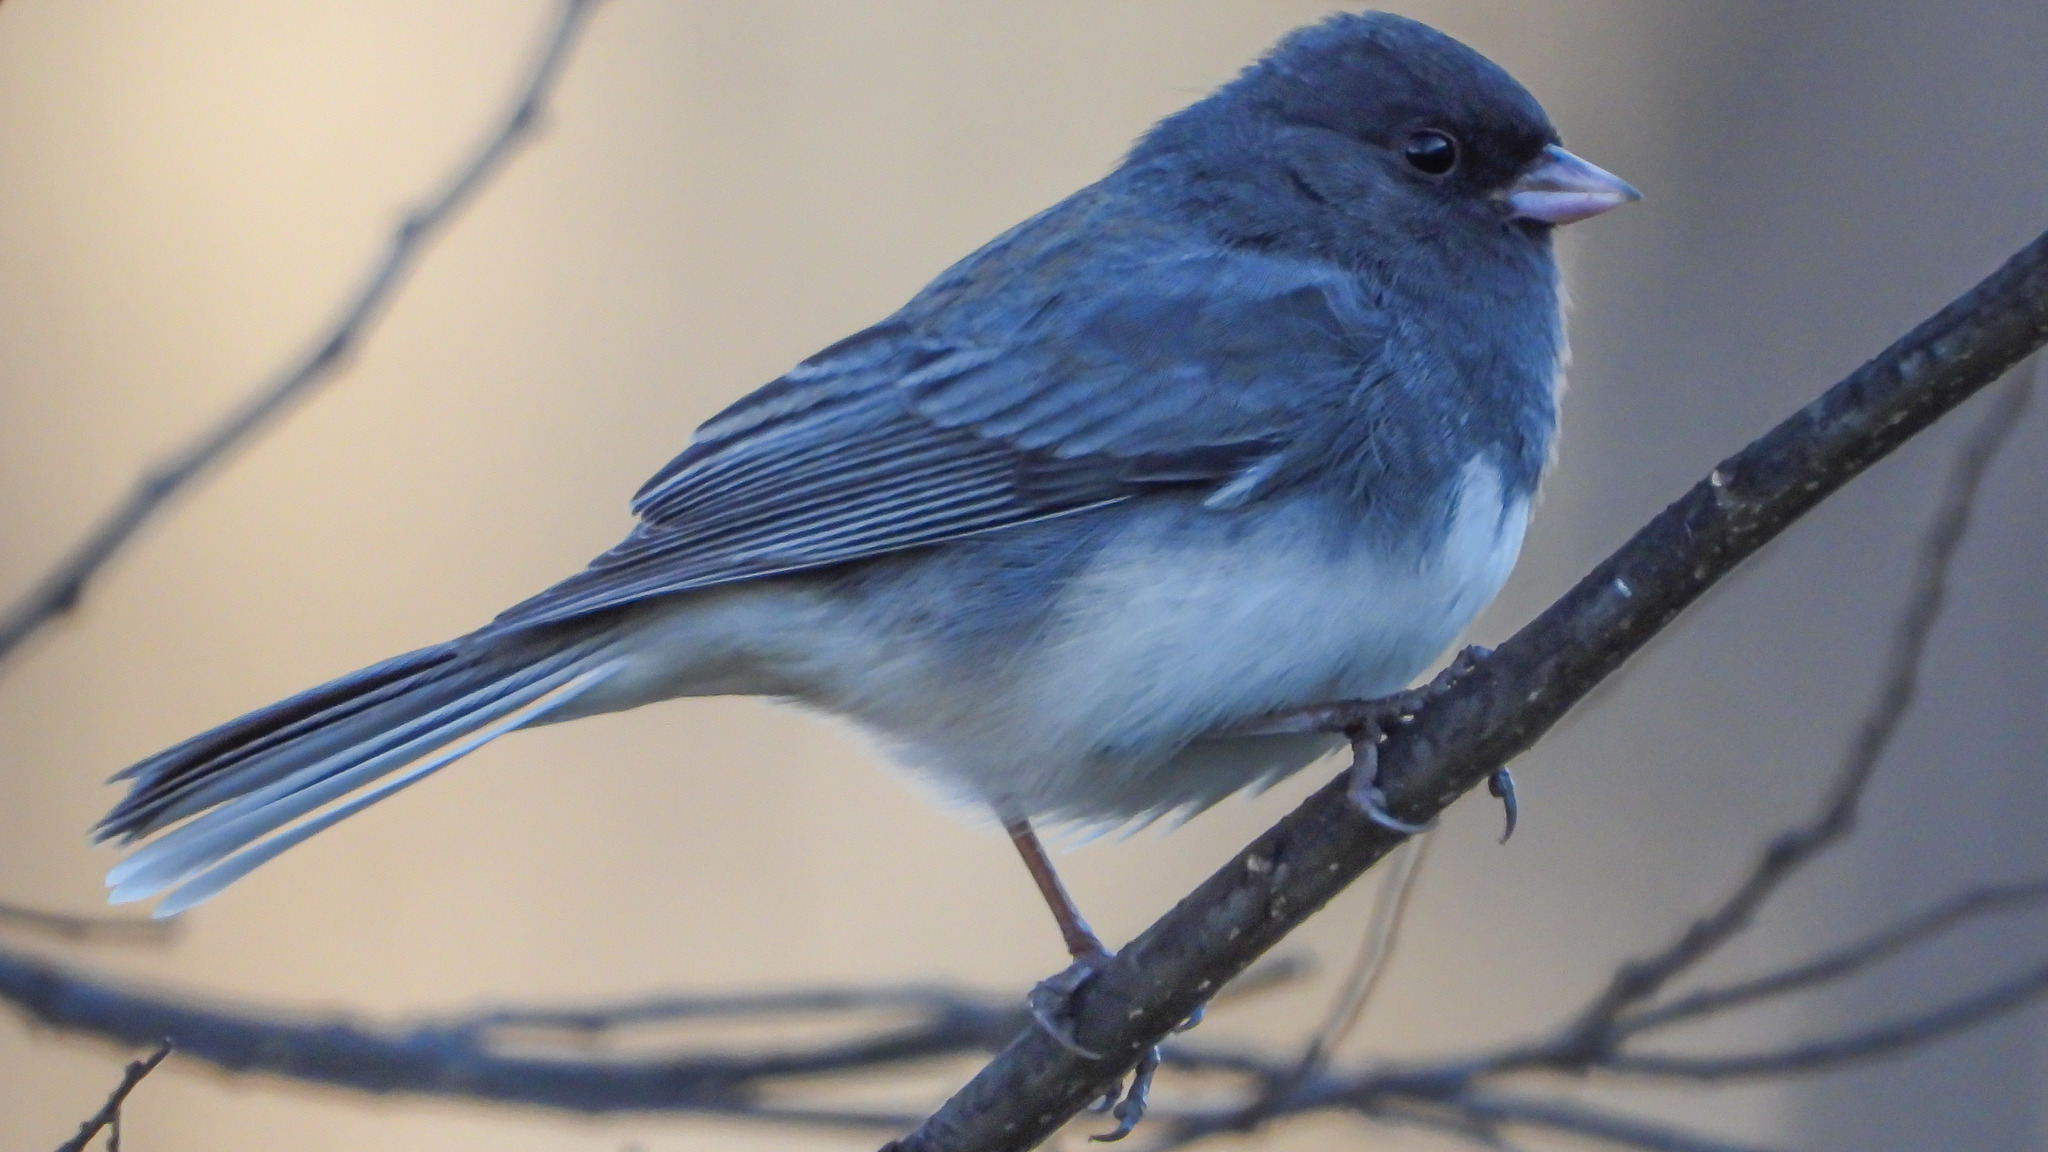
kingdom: Animalia
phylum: Chordata
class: Aves
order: Passeriformes
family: Passerellidae
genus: Junco
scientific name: Junco hyemalis
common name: Dark-eyed junco
